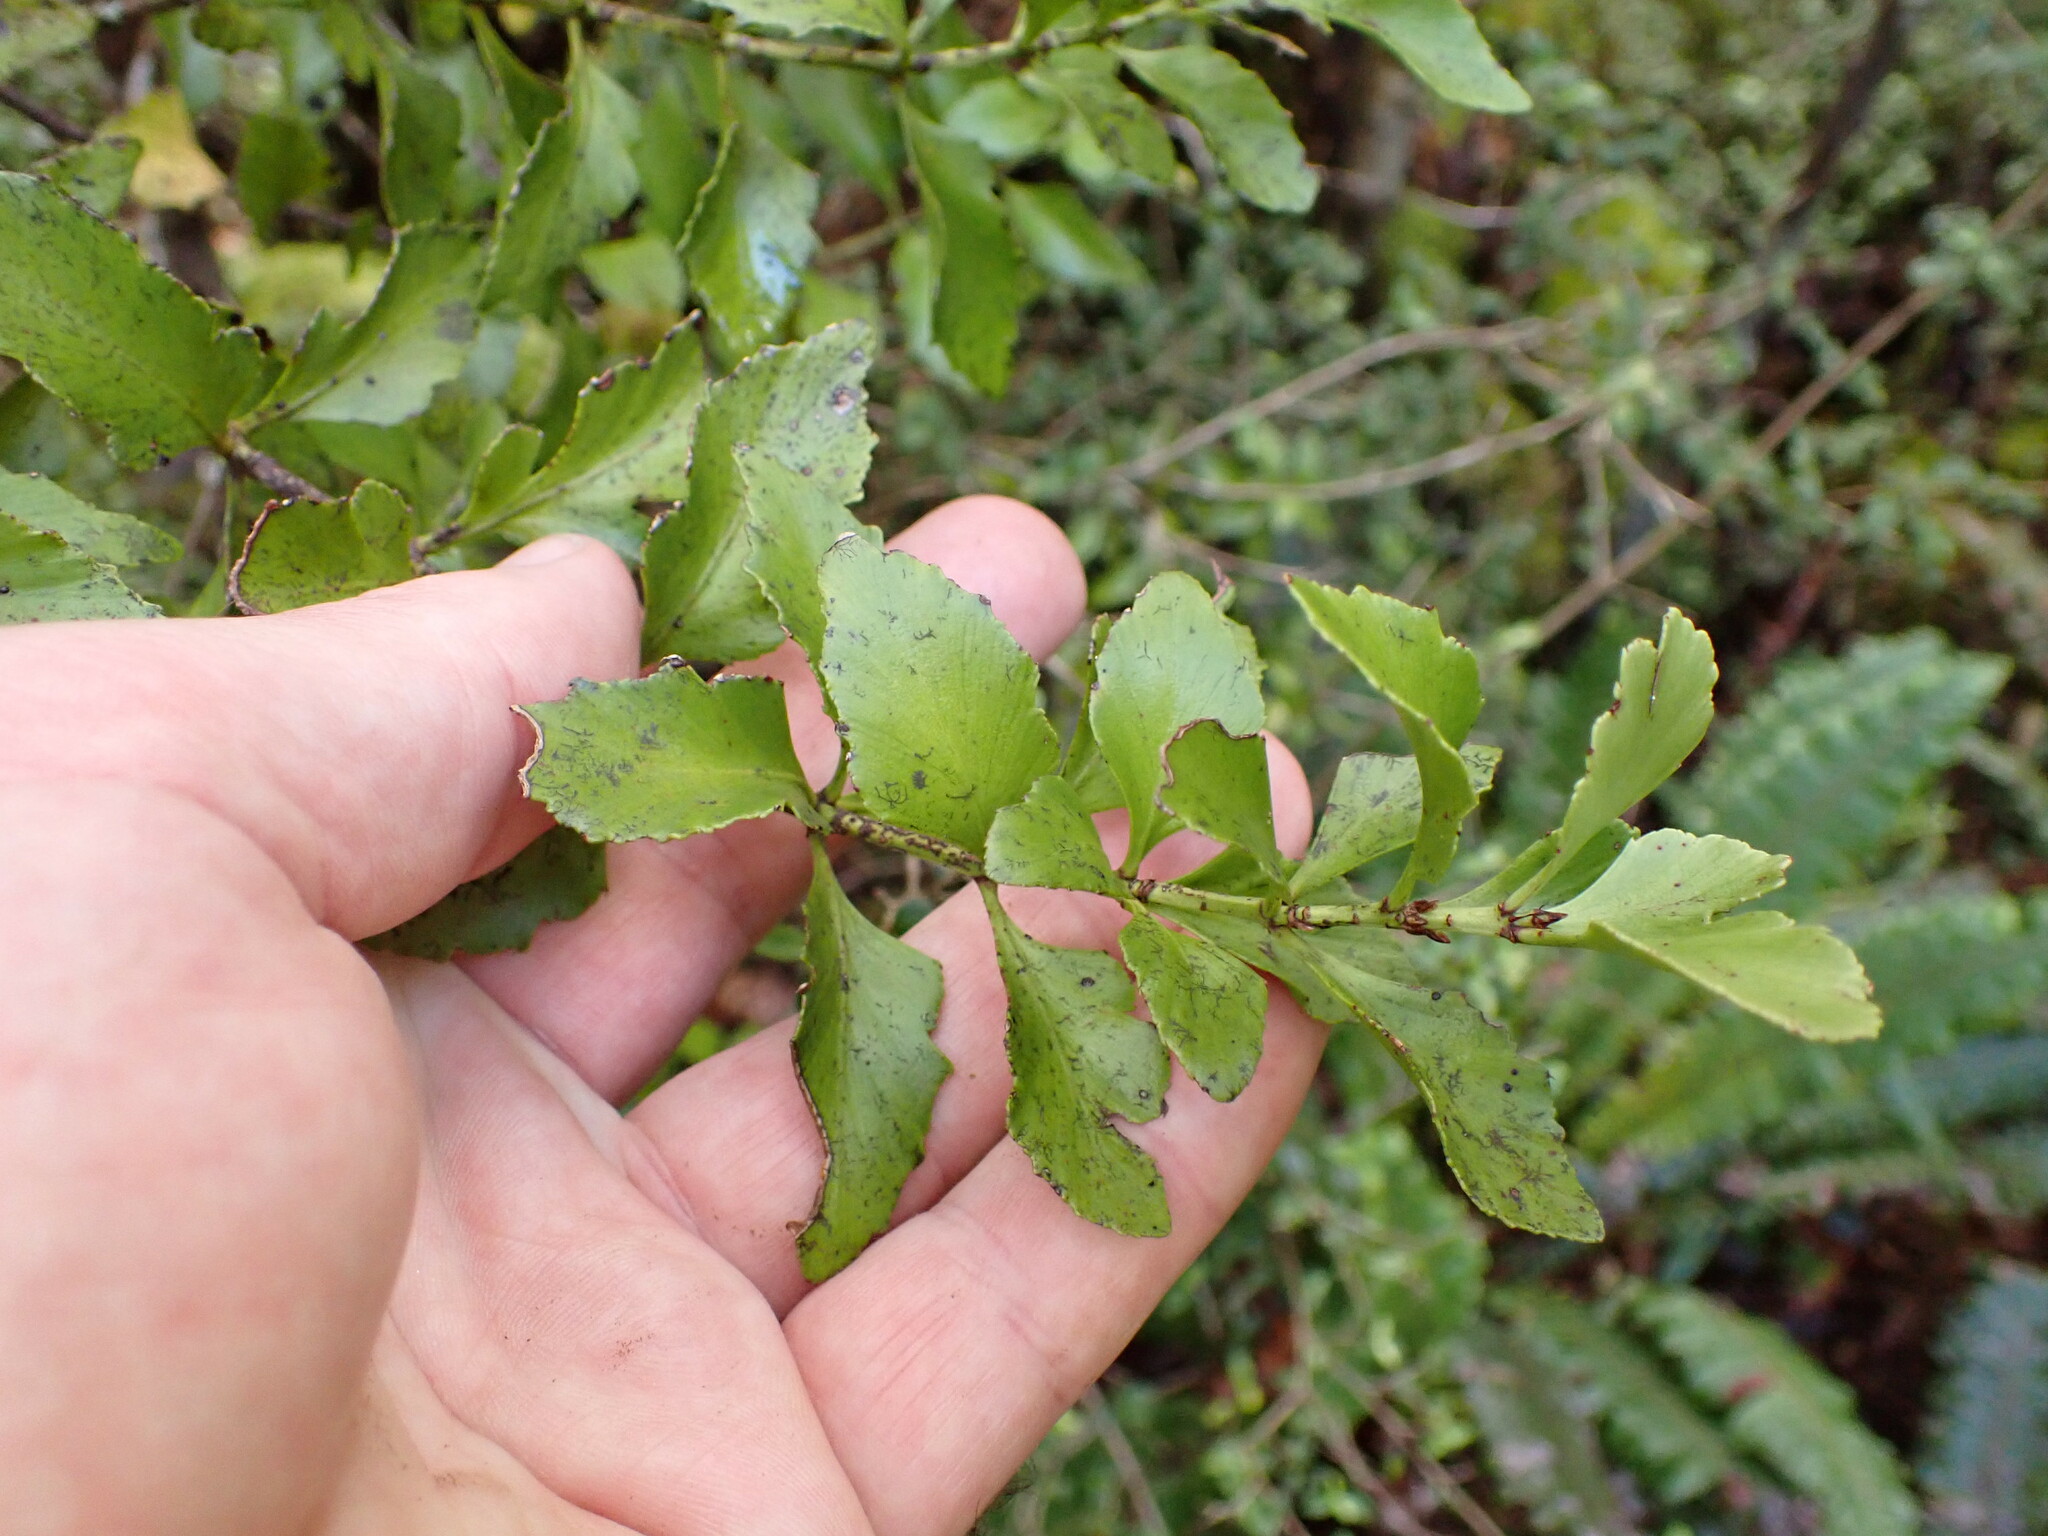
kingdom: Plantae
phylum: Tracheophyta
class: Pinopsida
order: Pinales
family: Phyllocladaceae
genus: Phyllocladus
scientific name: Phyllocladus trichomanoides
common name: Celery pine
